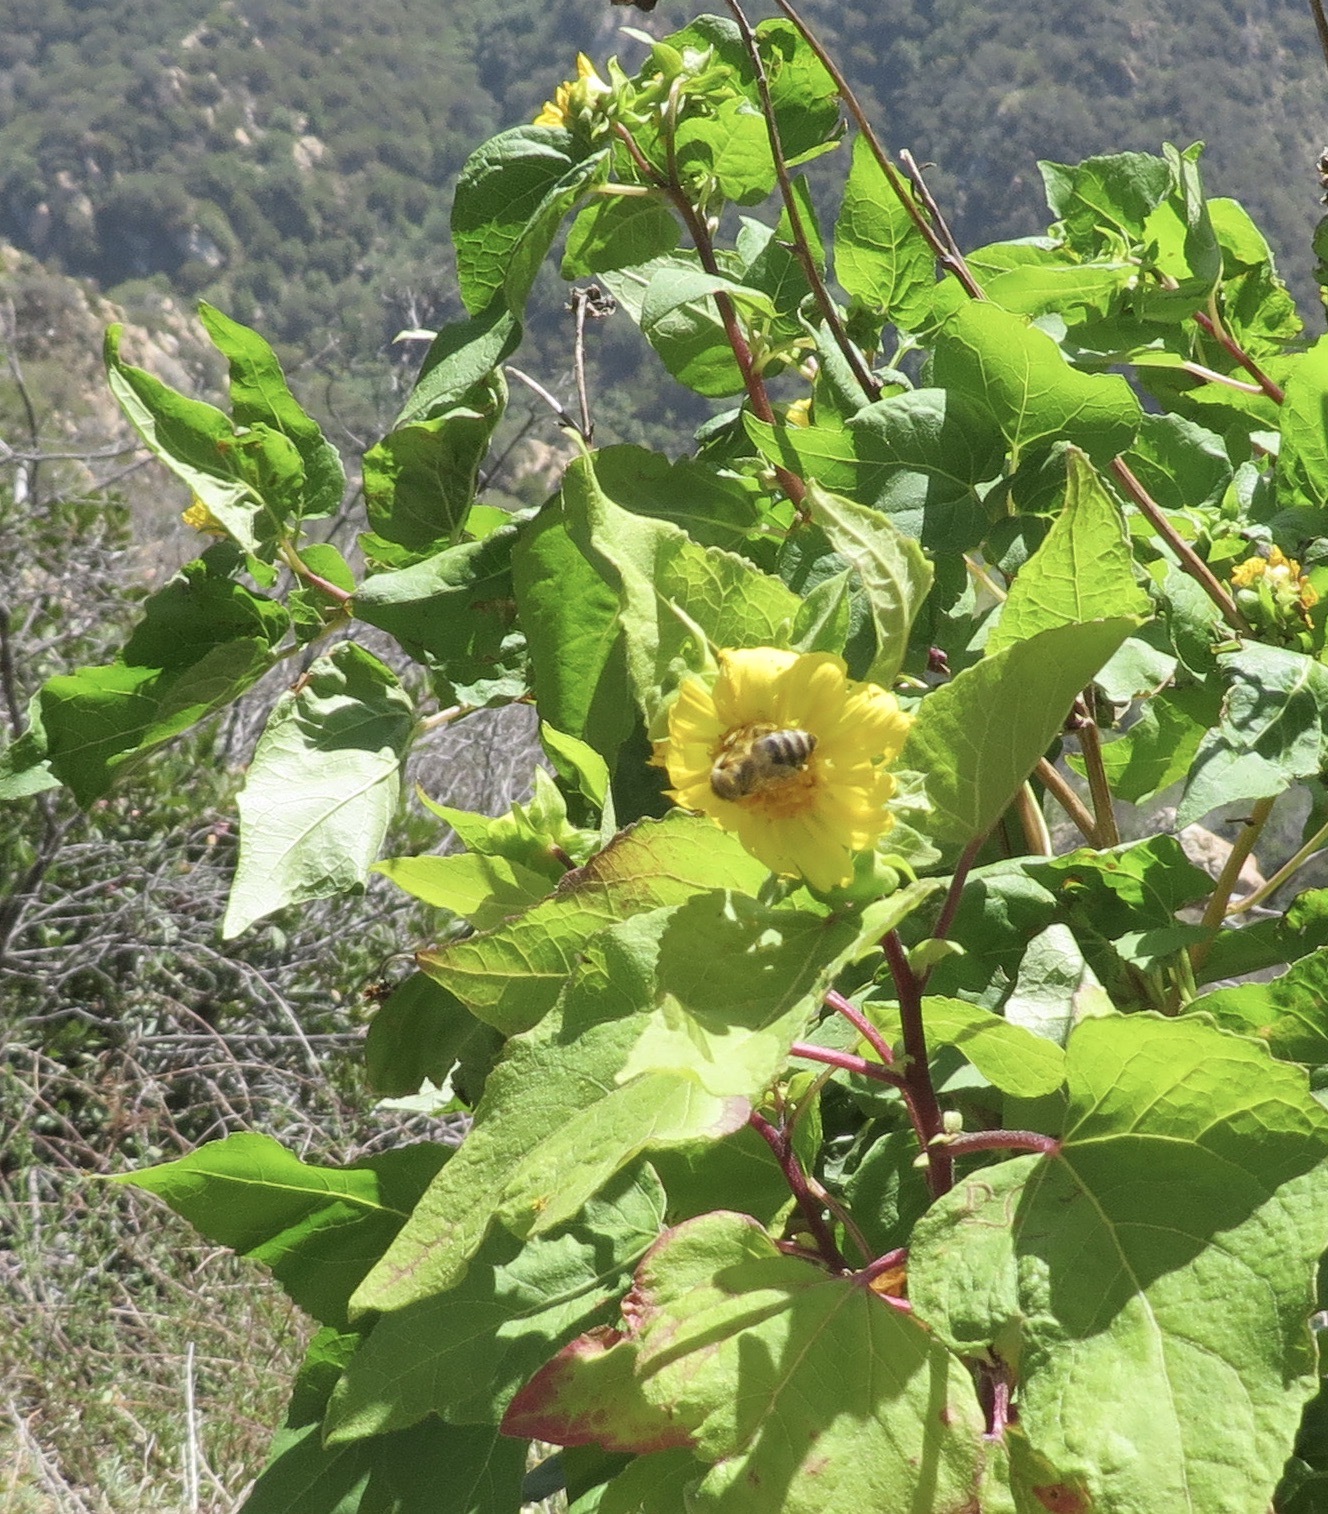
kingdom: Animalia
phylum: Arthropoda
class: Insecta
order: Hymenoptera
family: Apidae
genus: Apis
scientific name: Apis mellifera
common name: Honey bee
